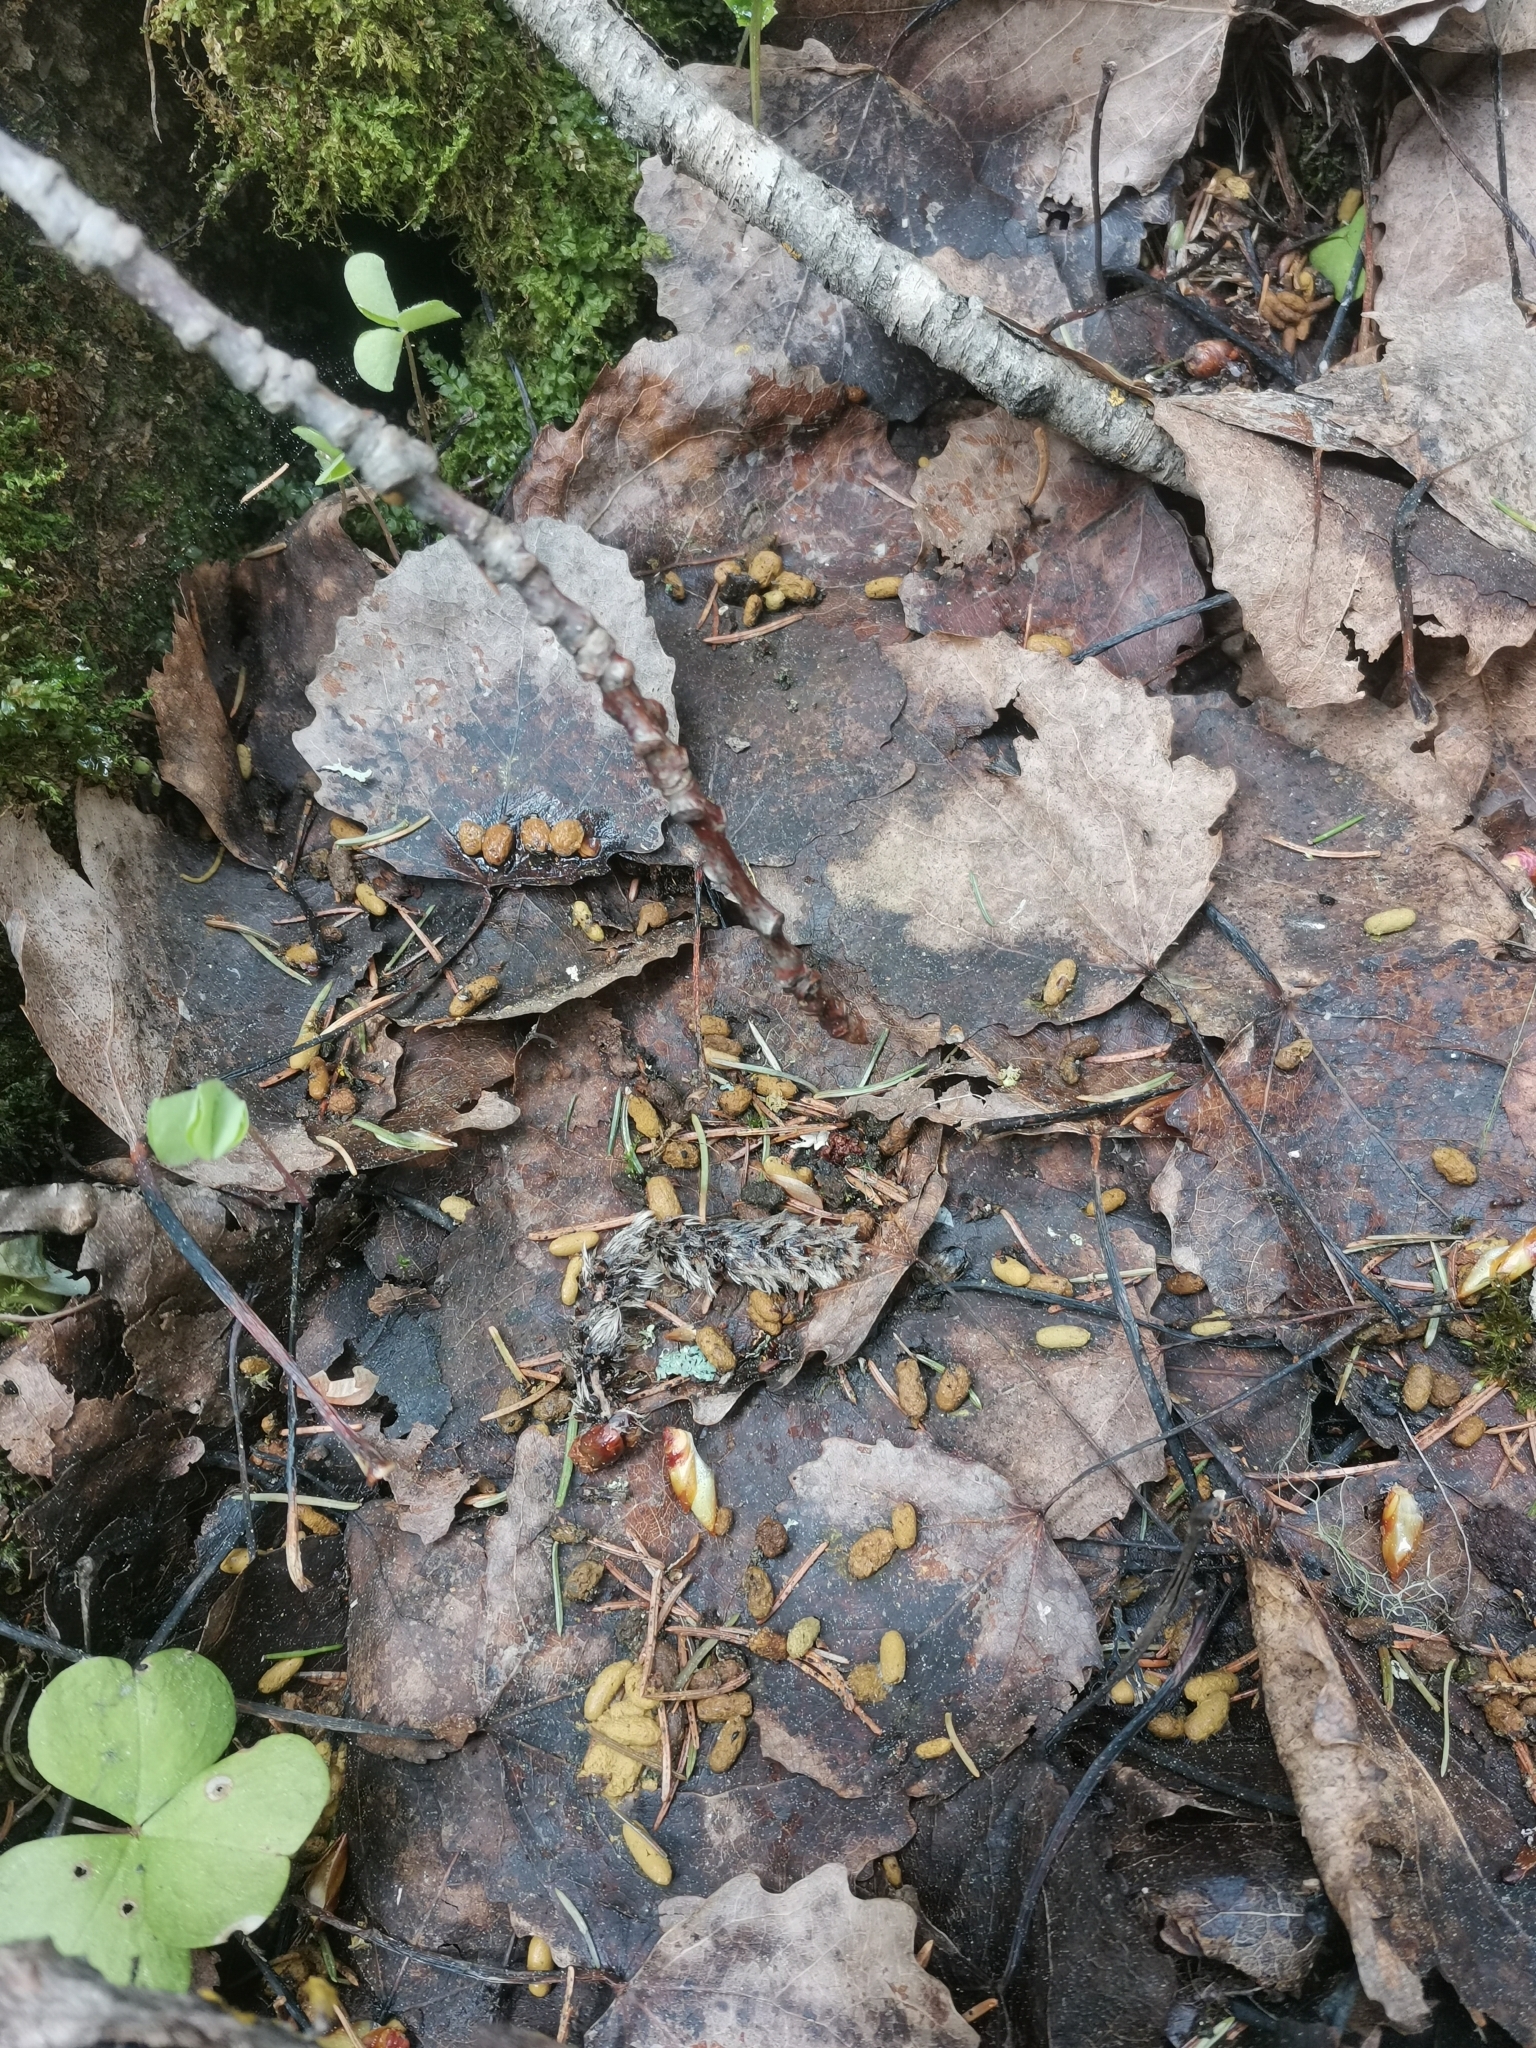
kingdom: Animalia
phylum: Chordata
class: Mammalia
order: Rodentia
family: Sciuridae
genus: Pteromys
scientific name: Pteromys volans
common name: Siberian flying squirrel
